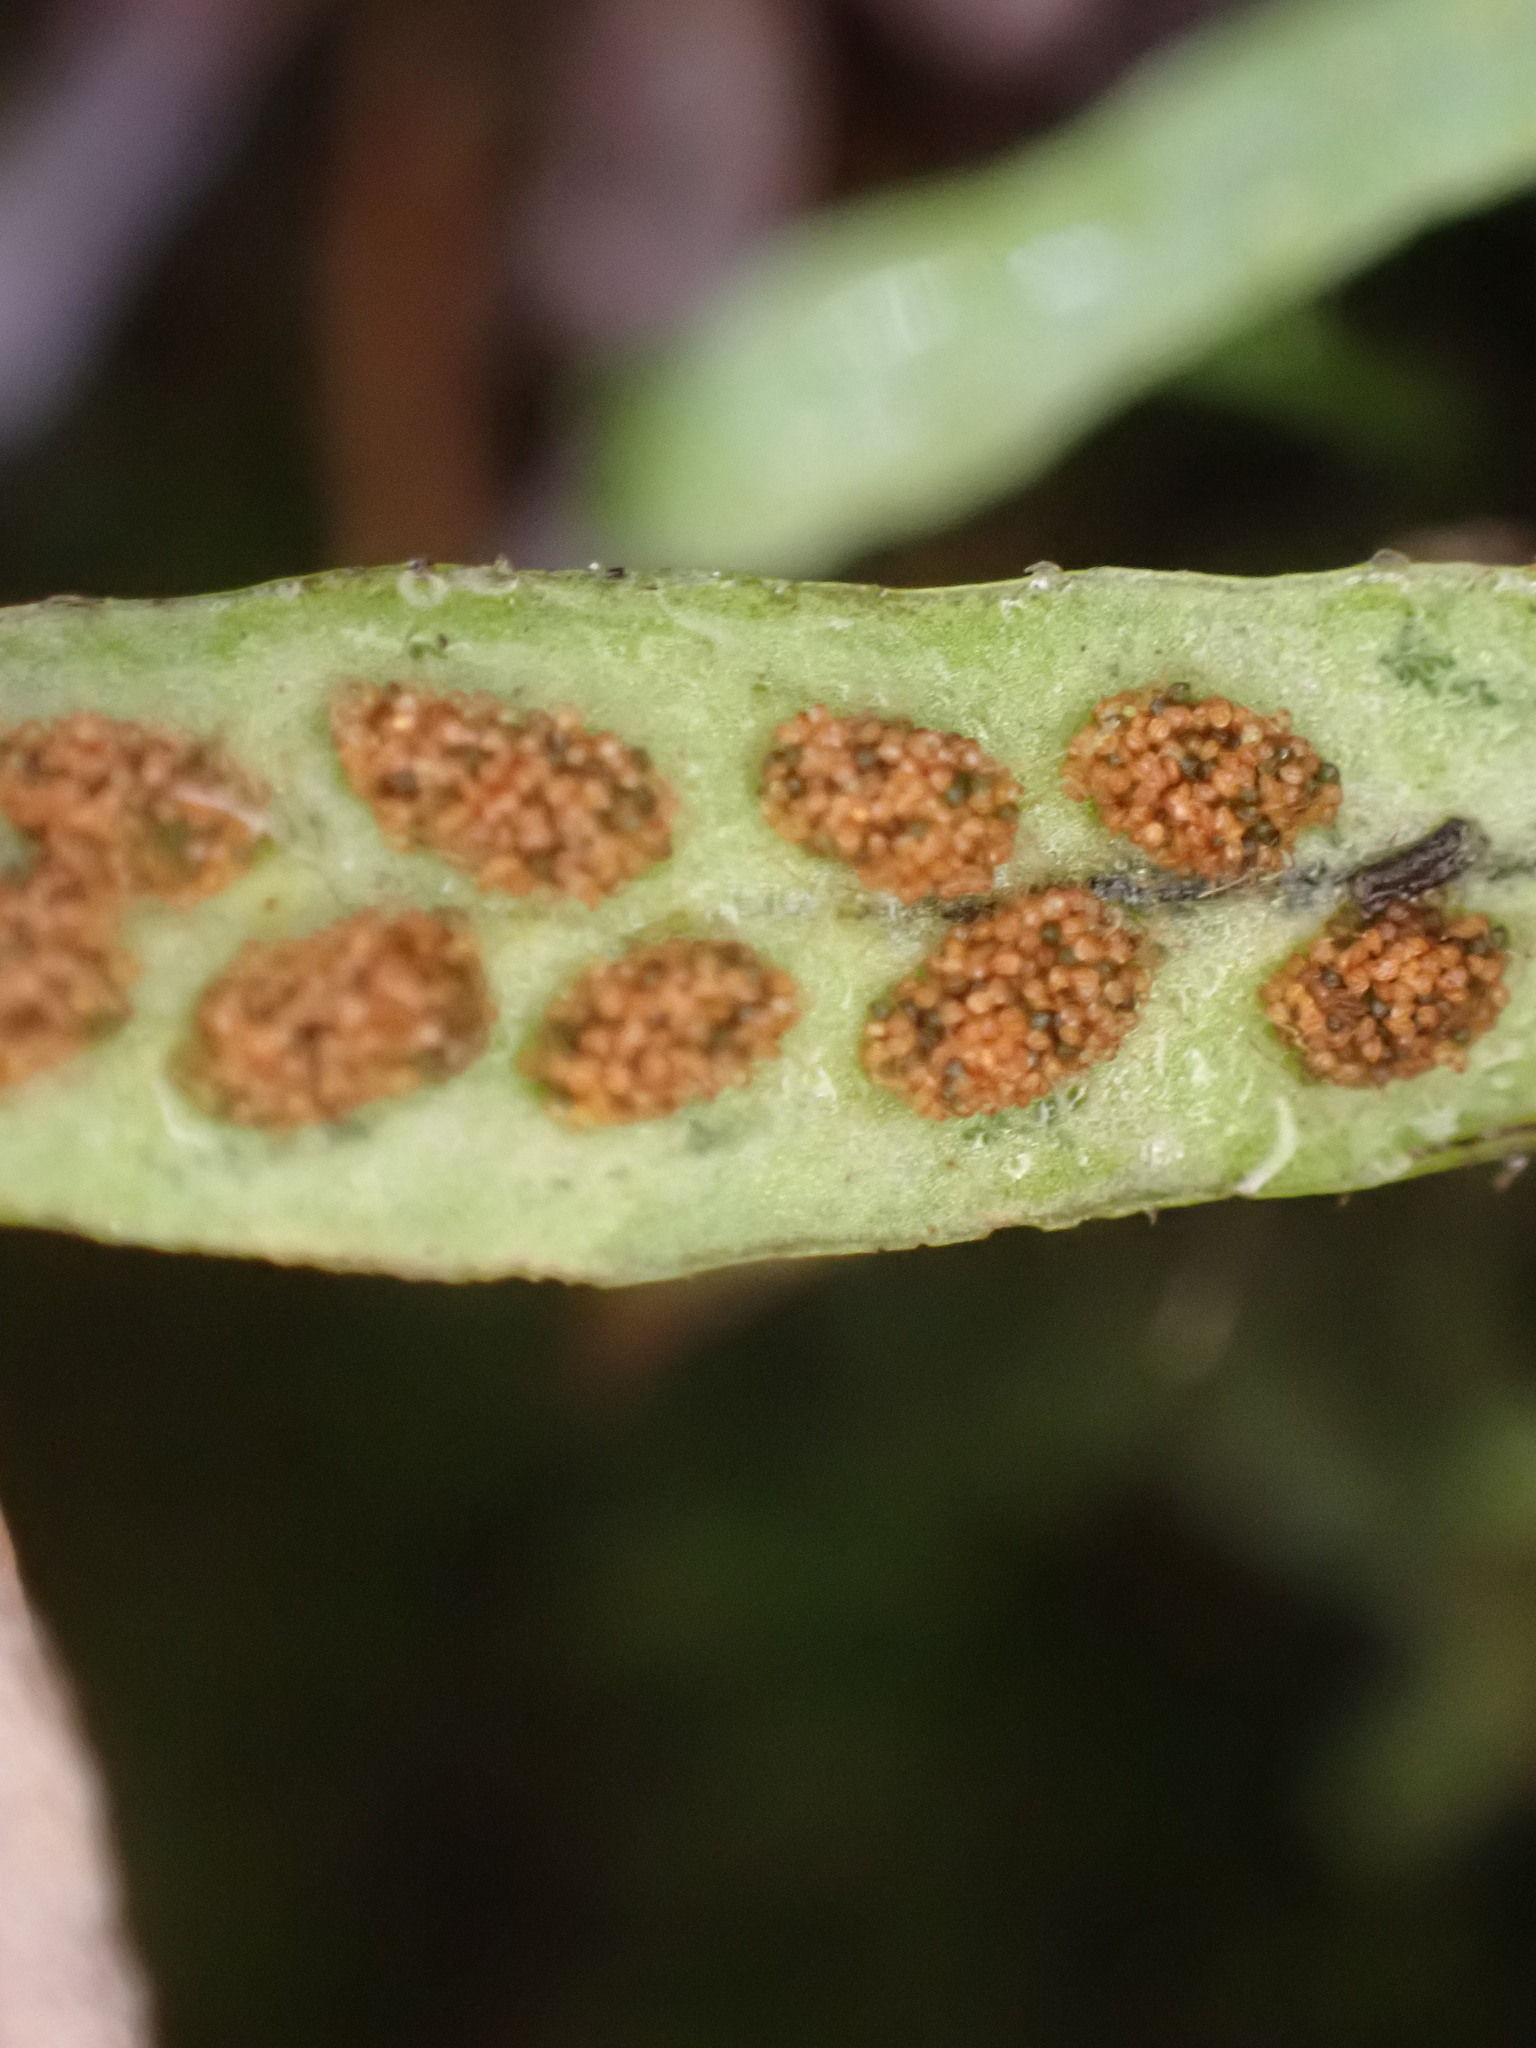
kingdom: Plantae
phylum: Tracheophyta
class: Polypodiopsida
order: Polypodiales
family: Polypodiaceae
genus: Notogrammitis
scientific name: Notogrammitis ciliata
